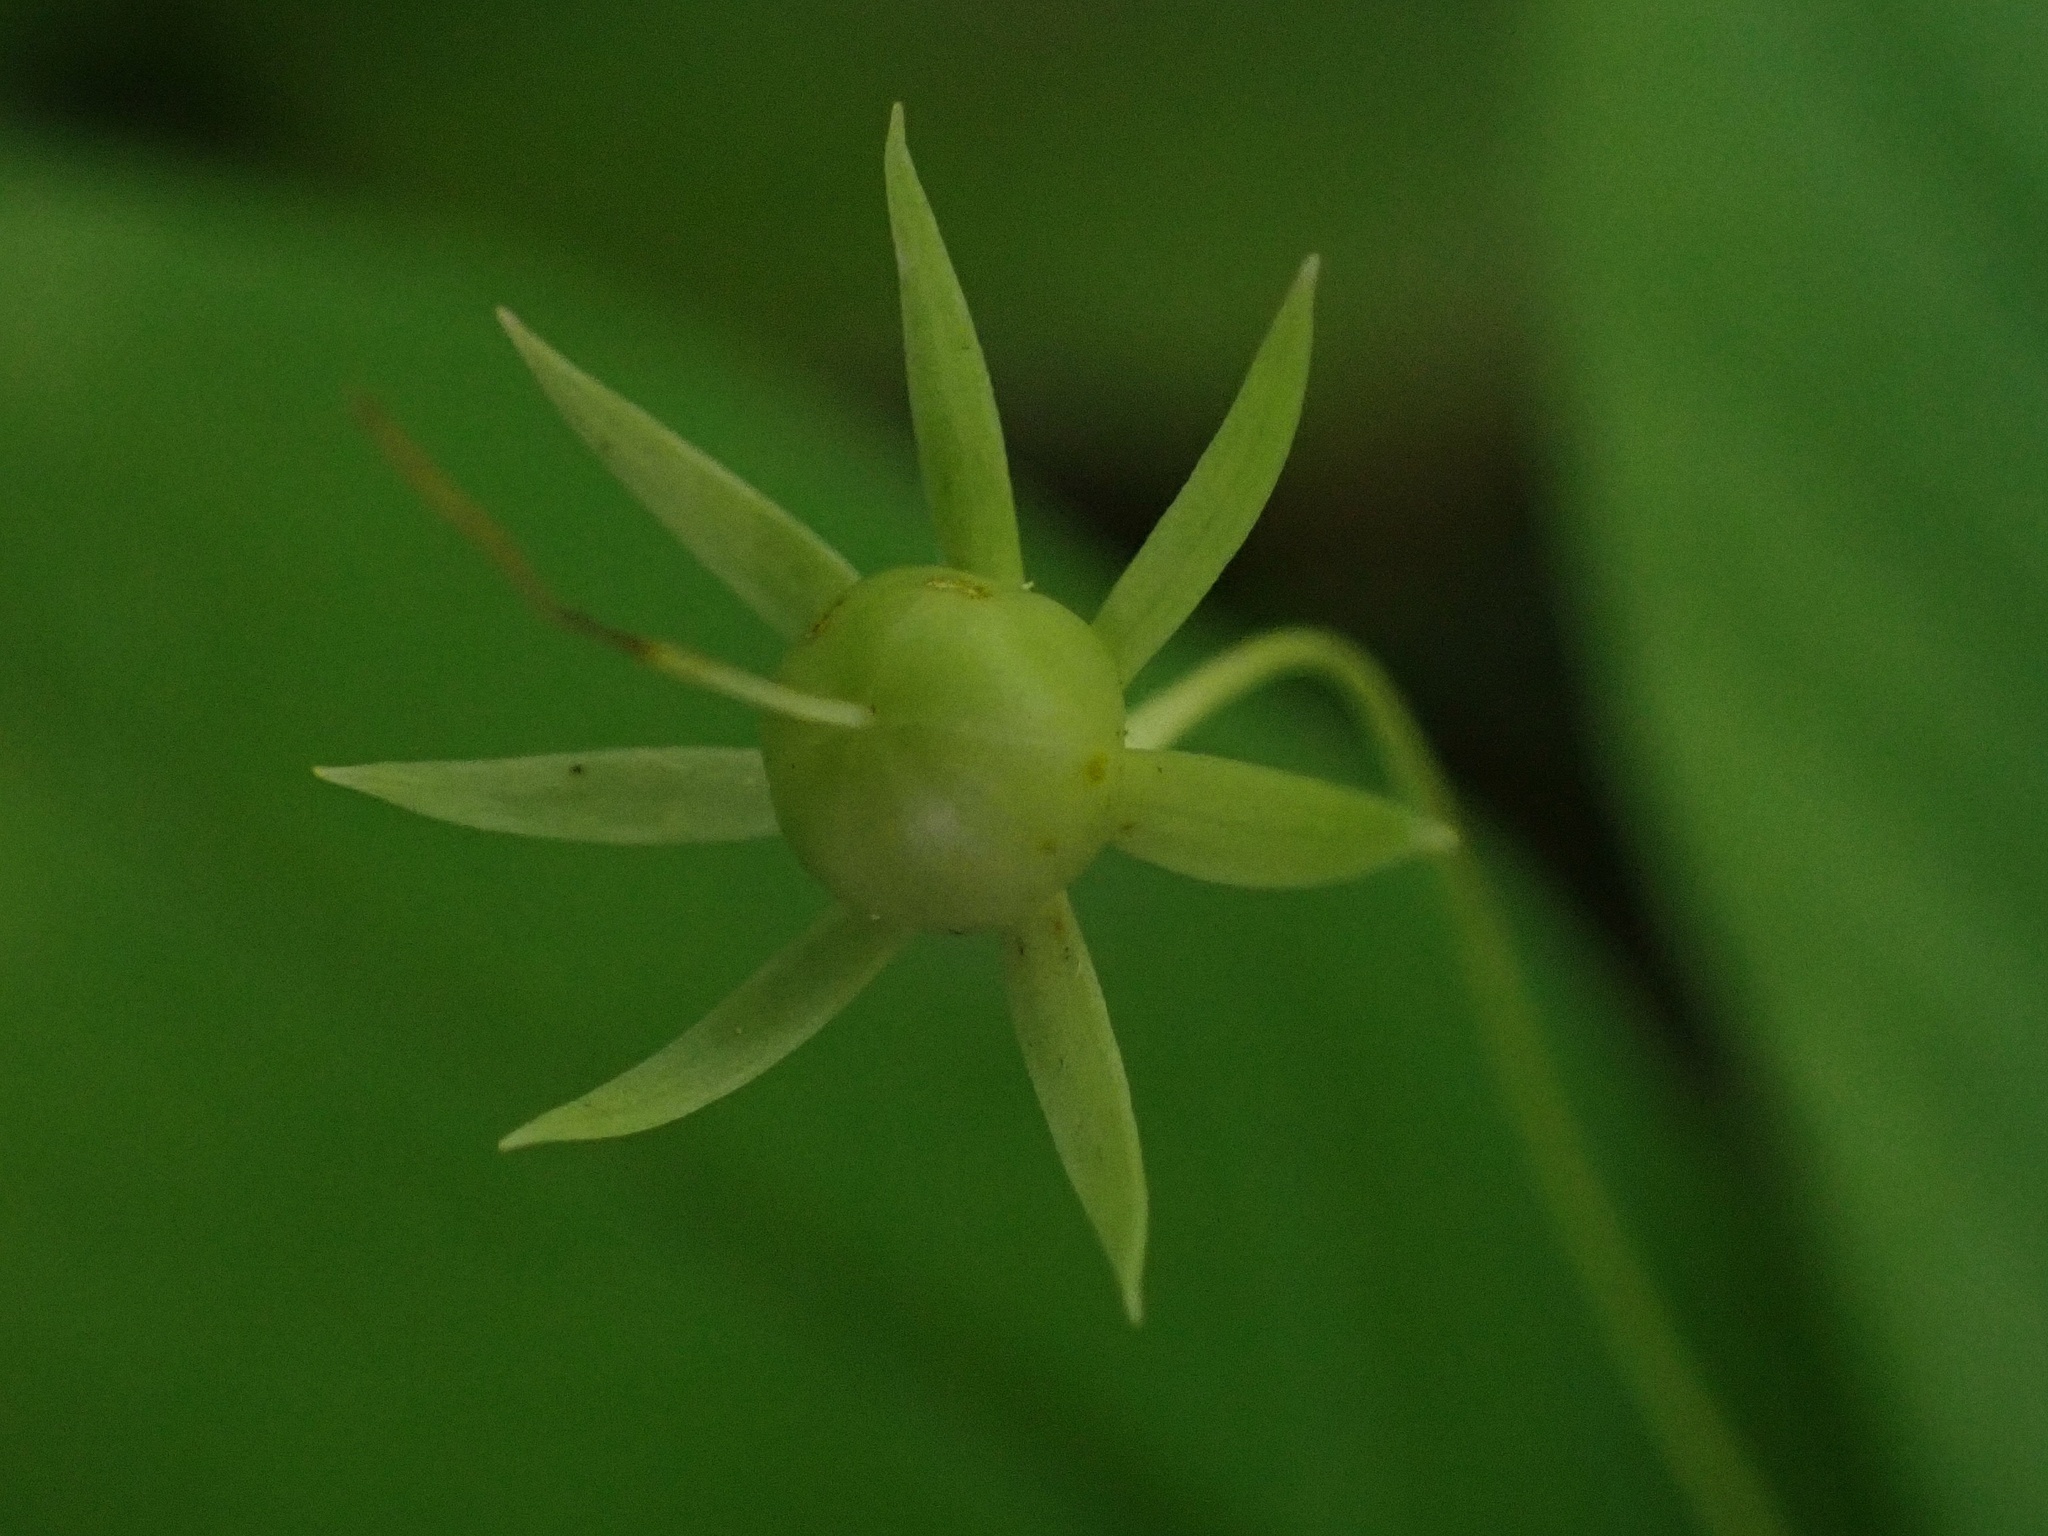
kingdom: Plantae
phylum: Tracheophyta
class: Magnoliopsida
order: Ericales
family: Primulaceae
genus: Lysimachia
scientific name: Lysimachia borealis
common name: American starflower
